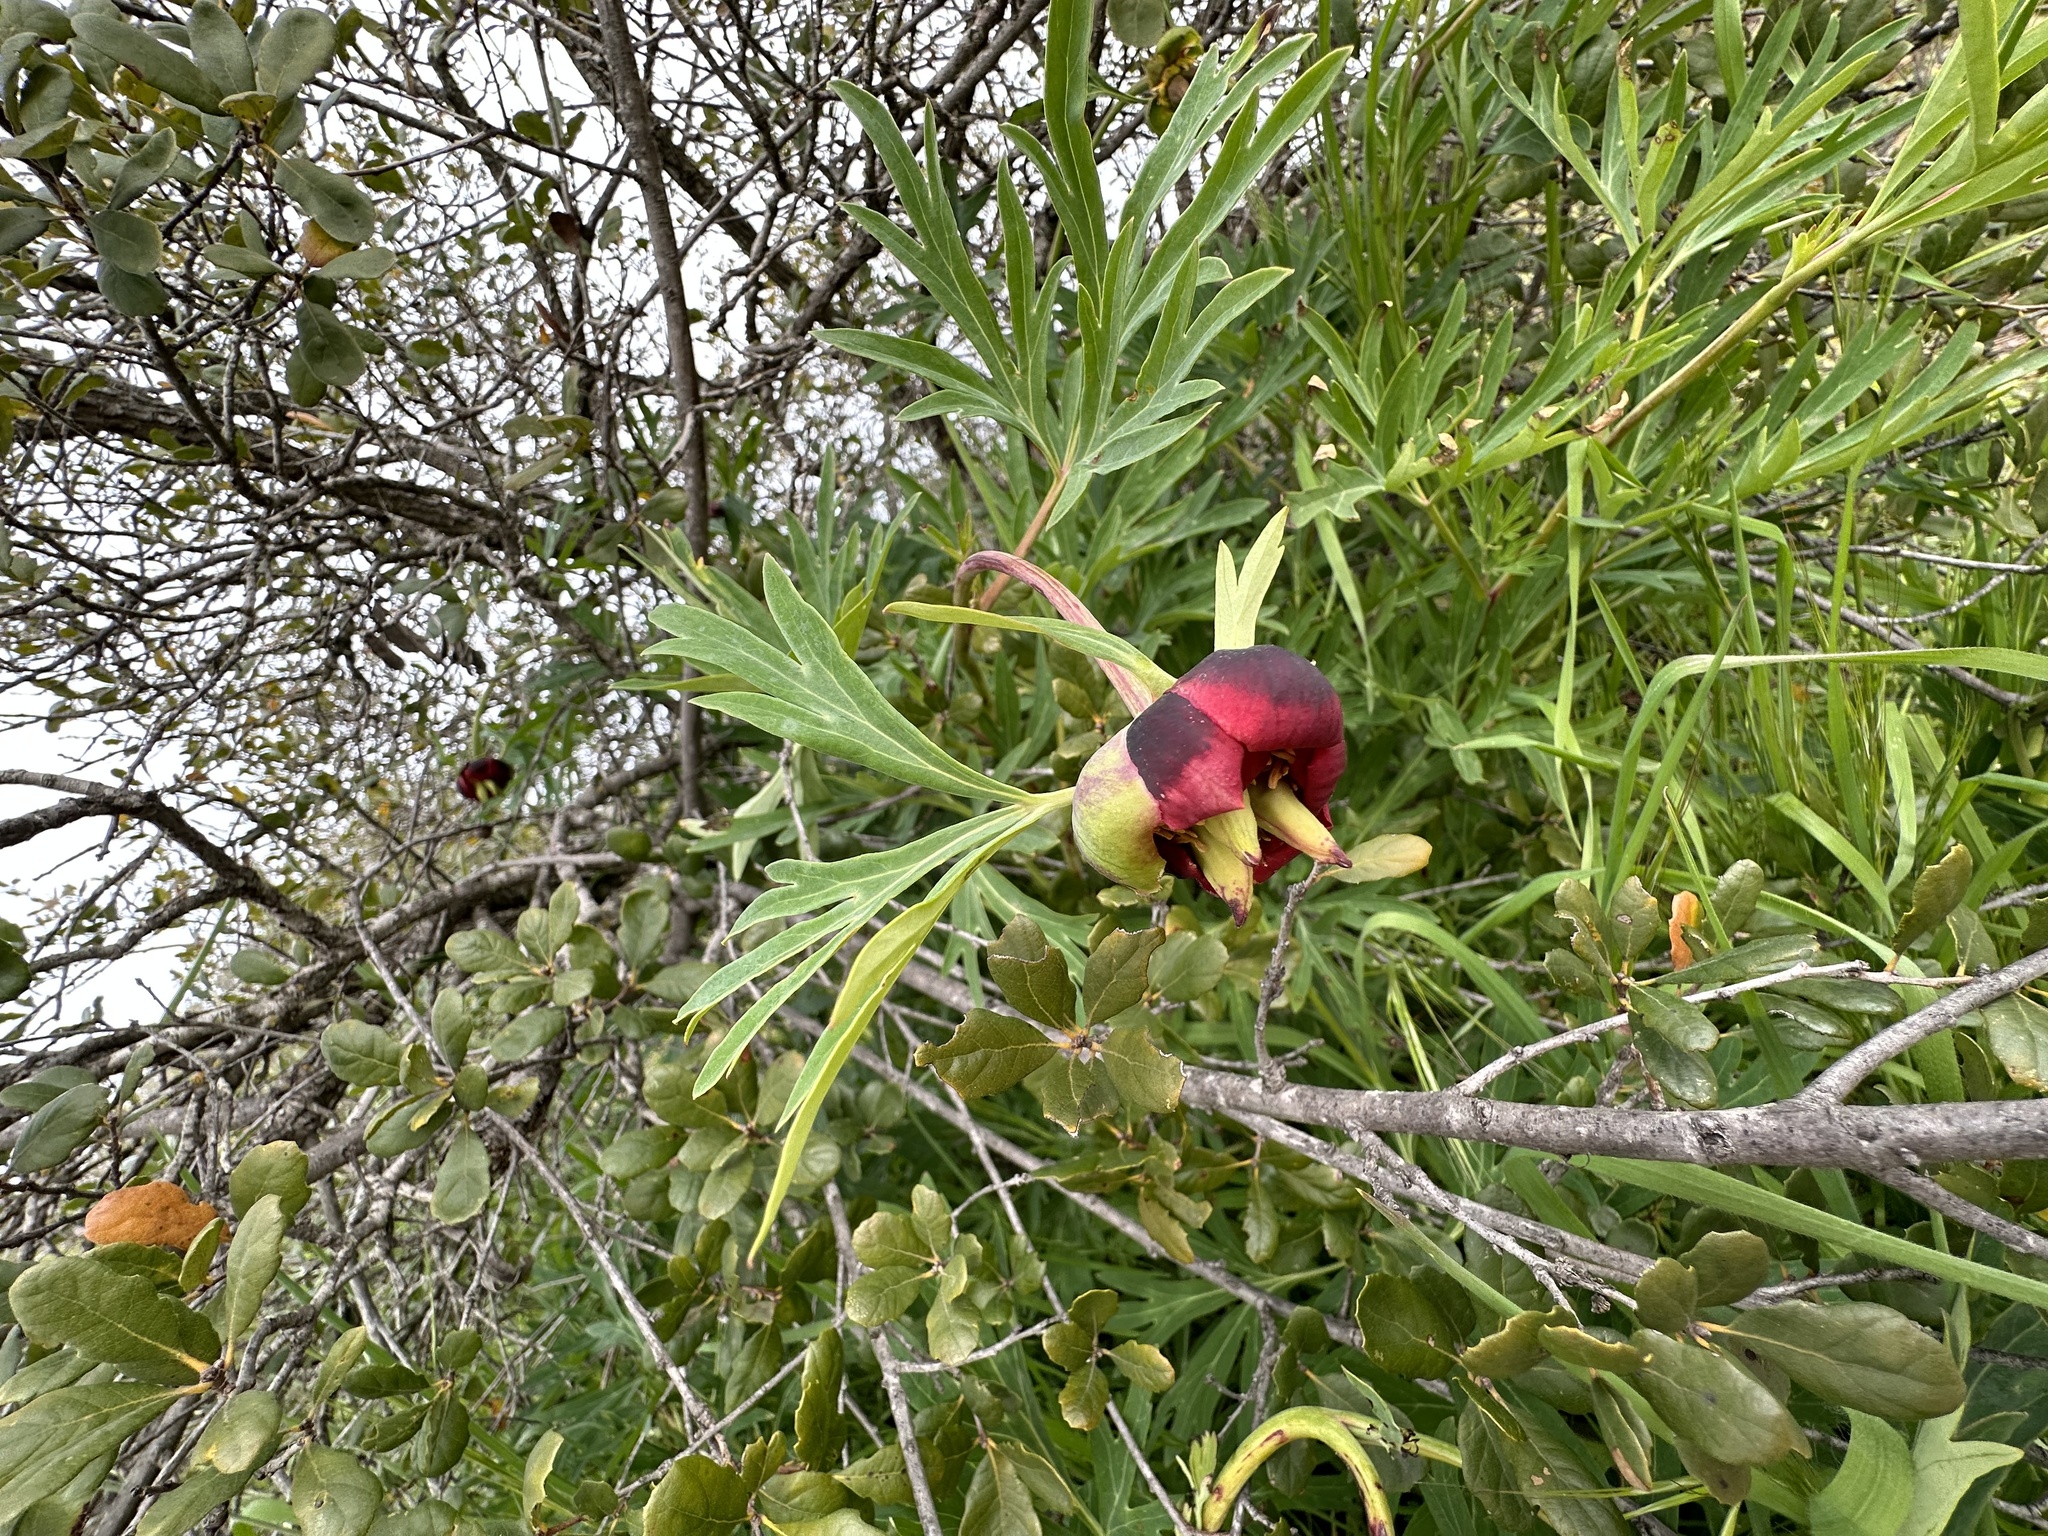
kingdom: Plantae
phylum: Tracheophyta
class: Magnoliopsida
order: Saxifragales
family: Paeoniaceae
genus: Paeonia
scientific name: Paeonia californica
